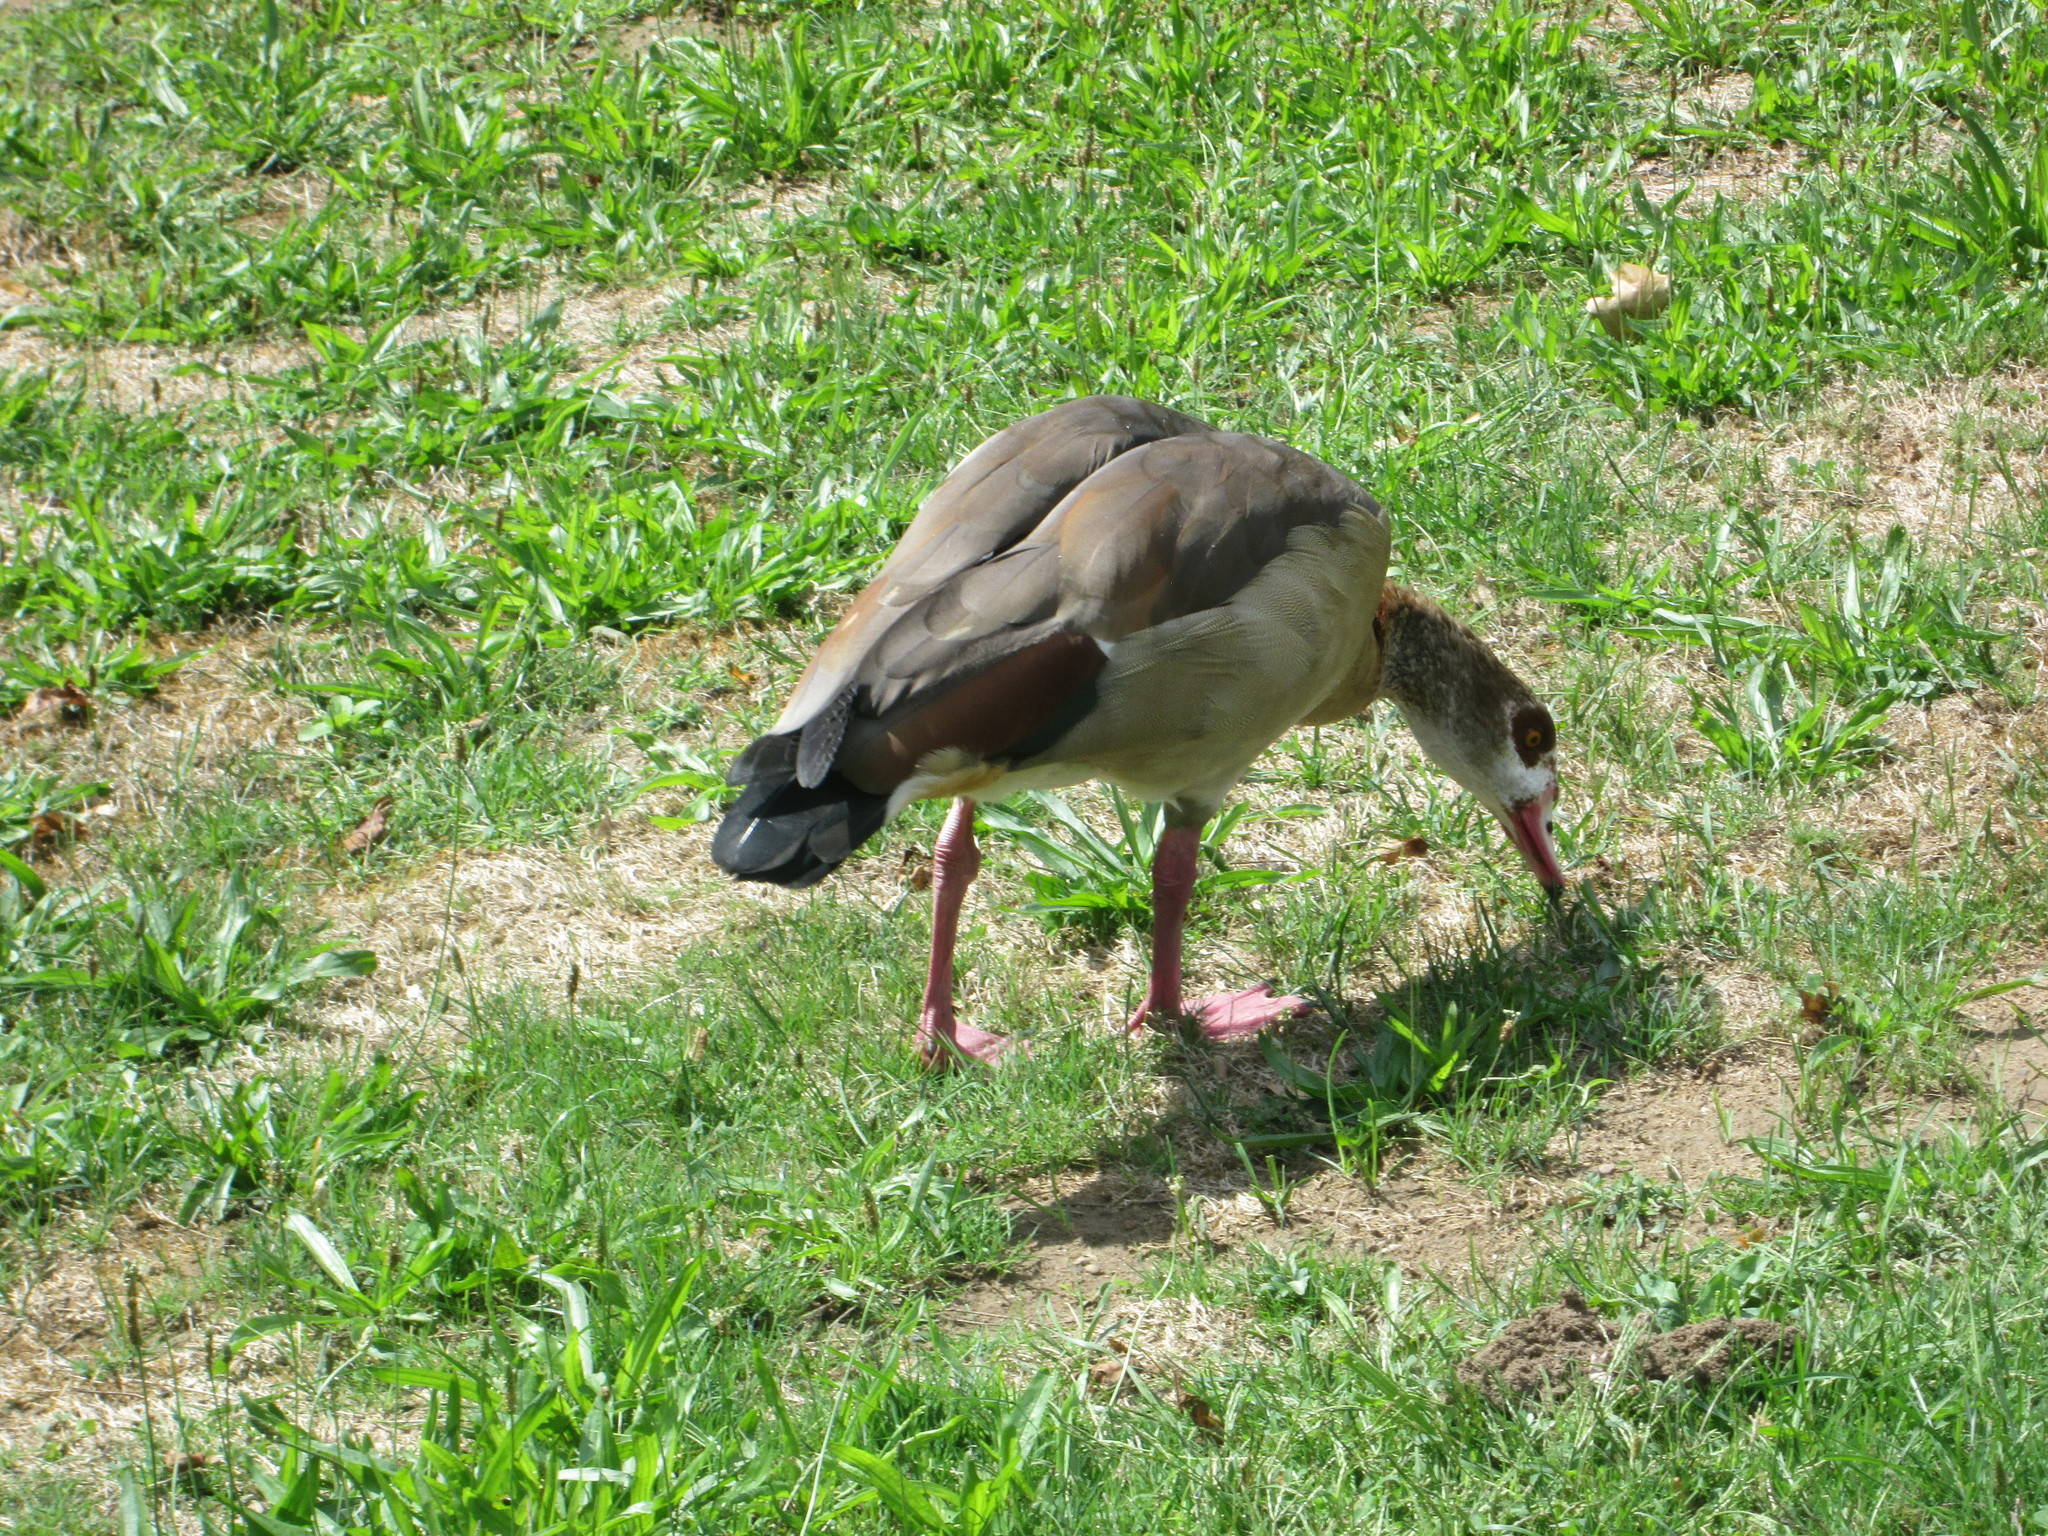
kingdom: Animalia
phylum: Chordata
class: Aves
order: Anseriformes
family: Anatidae
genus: Alopochen
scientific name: Alopochen aegyptiaca
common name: Egyptian goose
